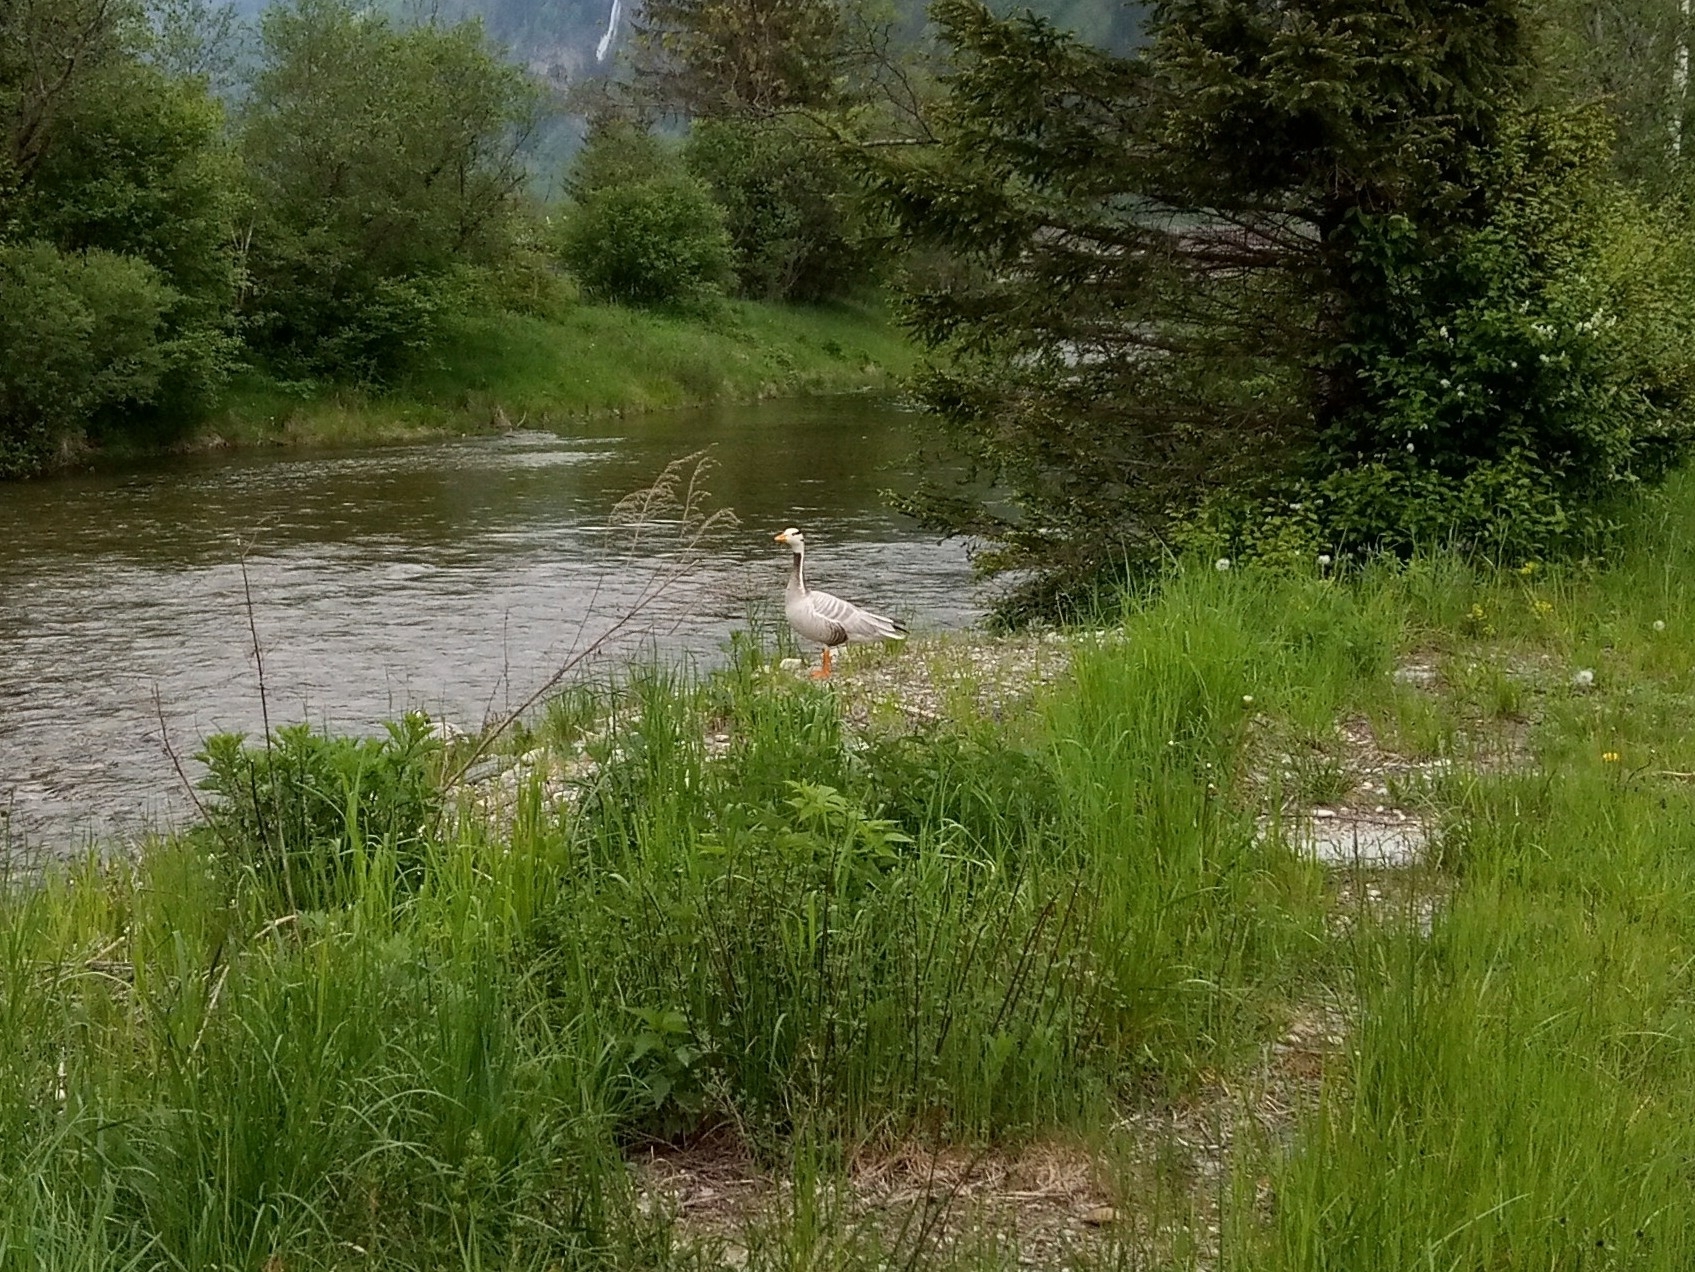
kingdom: Animalia
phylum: Chordata
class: Aves
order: Anseriformes
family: Anatidae
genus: Anser
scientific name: Anser indicus
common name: Bar-headed goose
